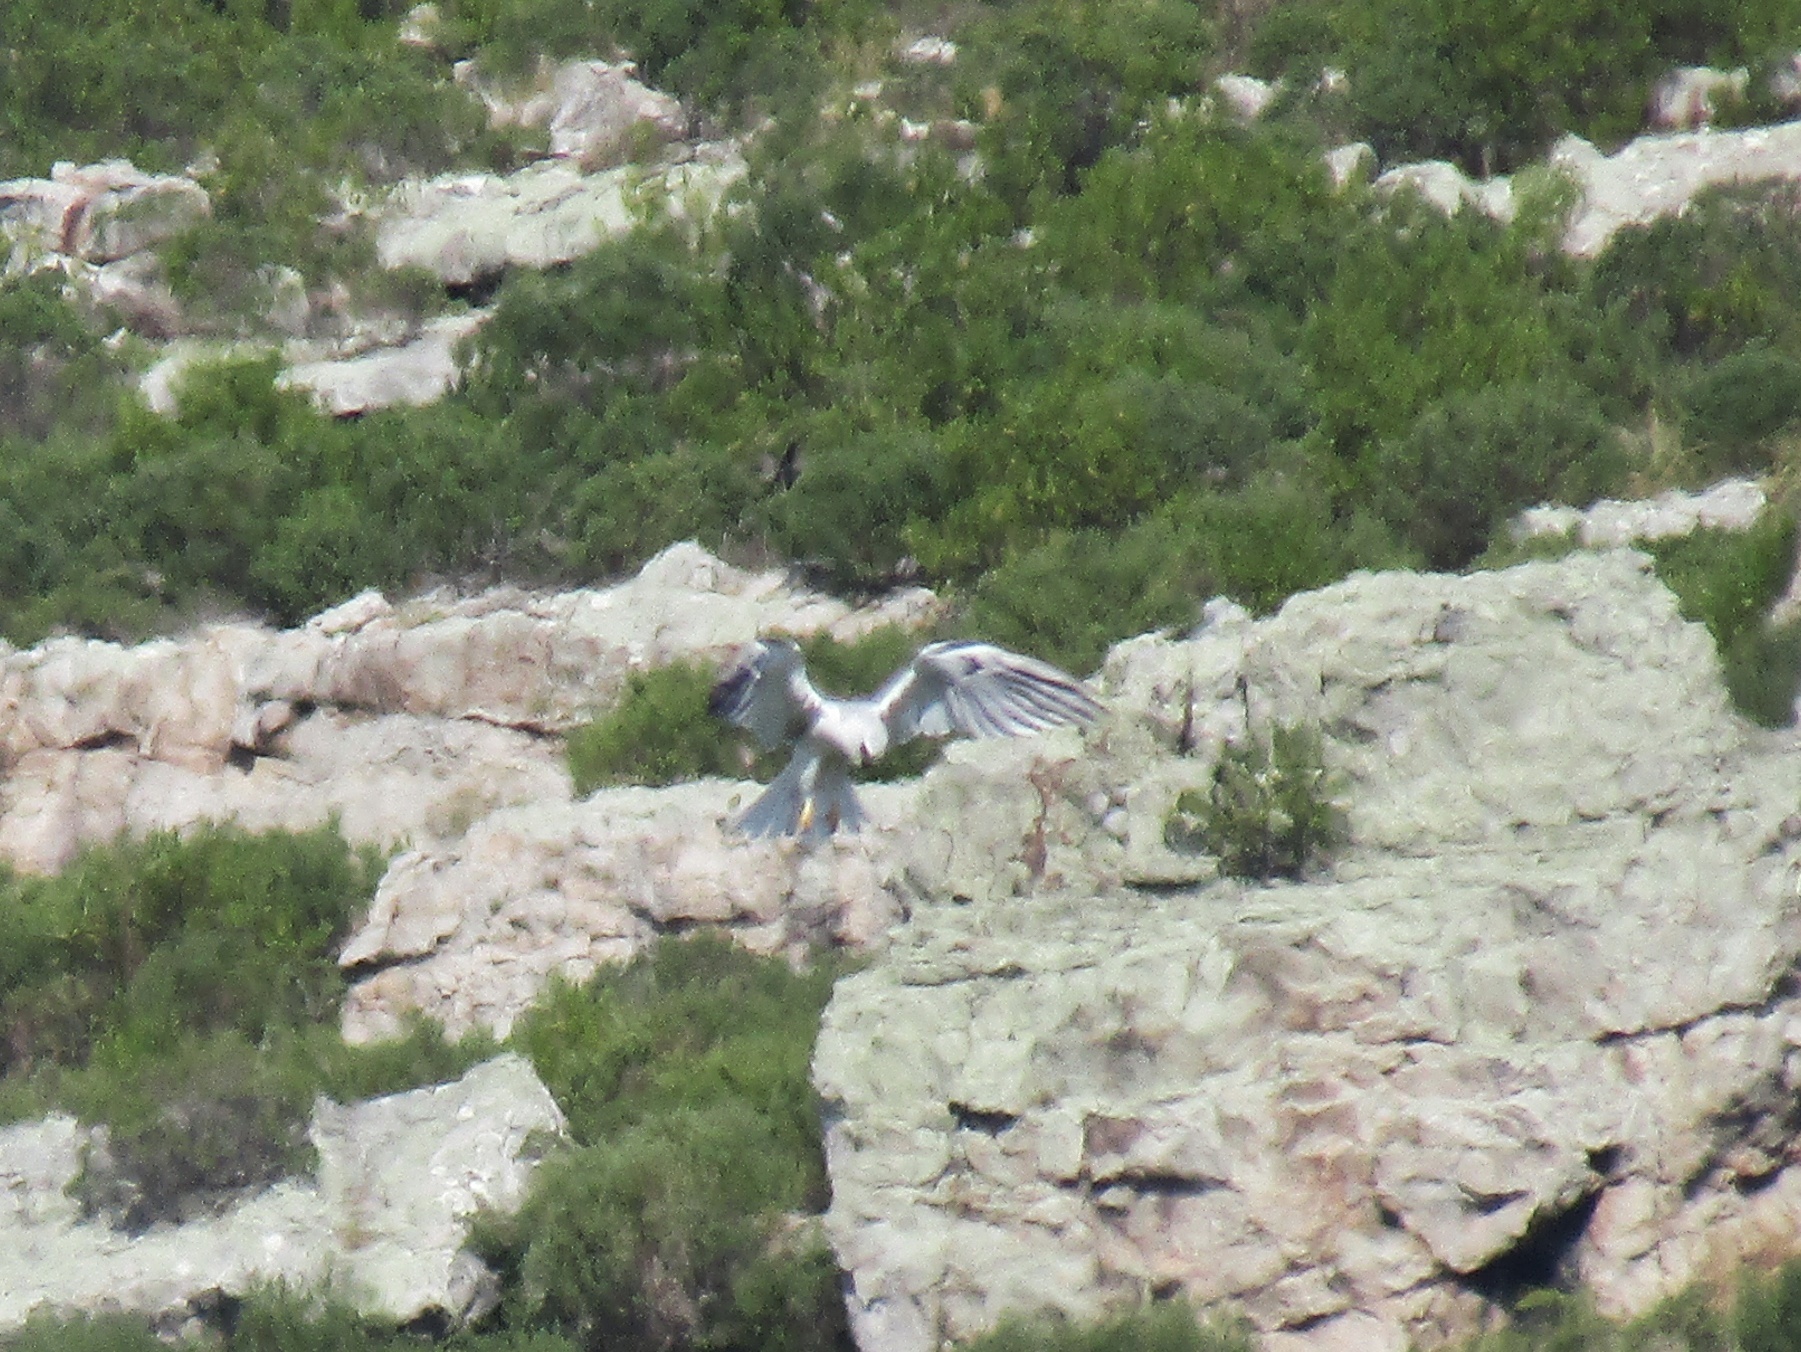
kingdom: Animalia
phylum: Chordata
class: Aves
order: Accipitriformes
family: Accipitridae
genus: Elanus
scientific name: Elanus leucurus
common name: White-tailed kite
